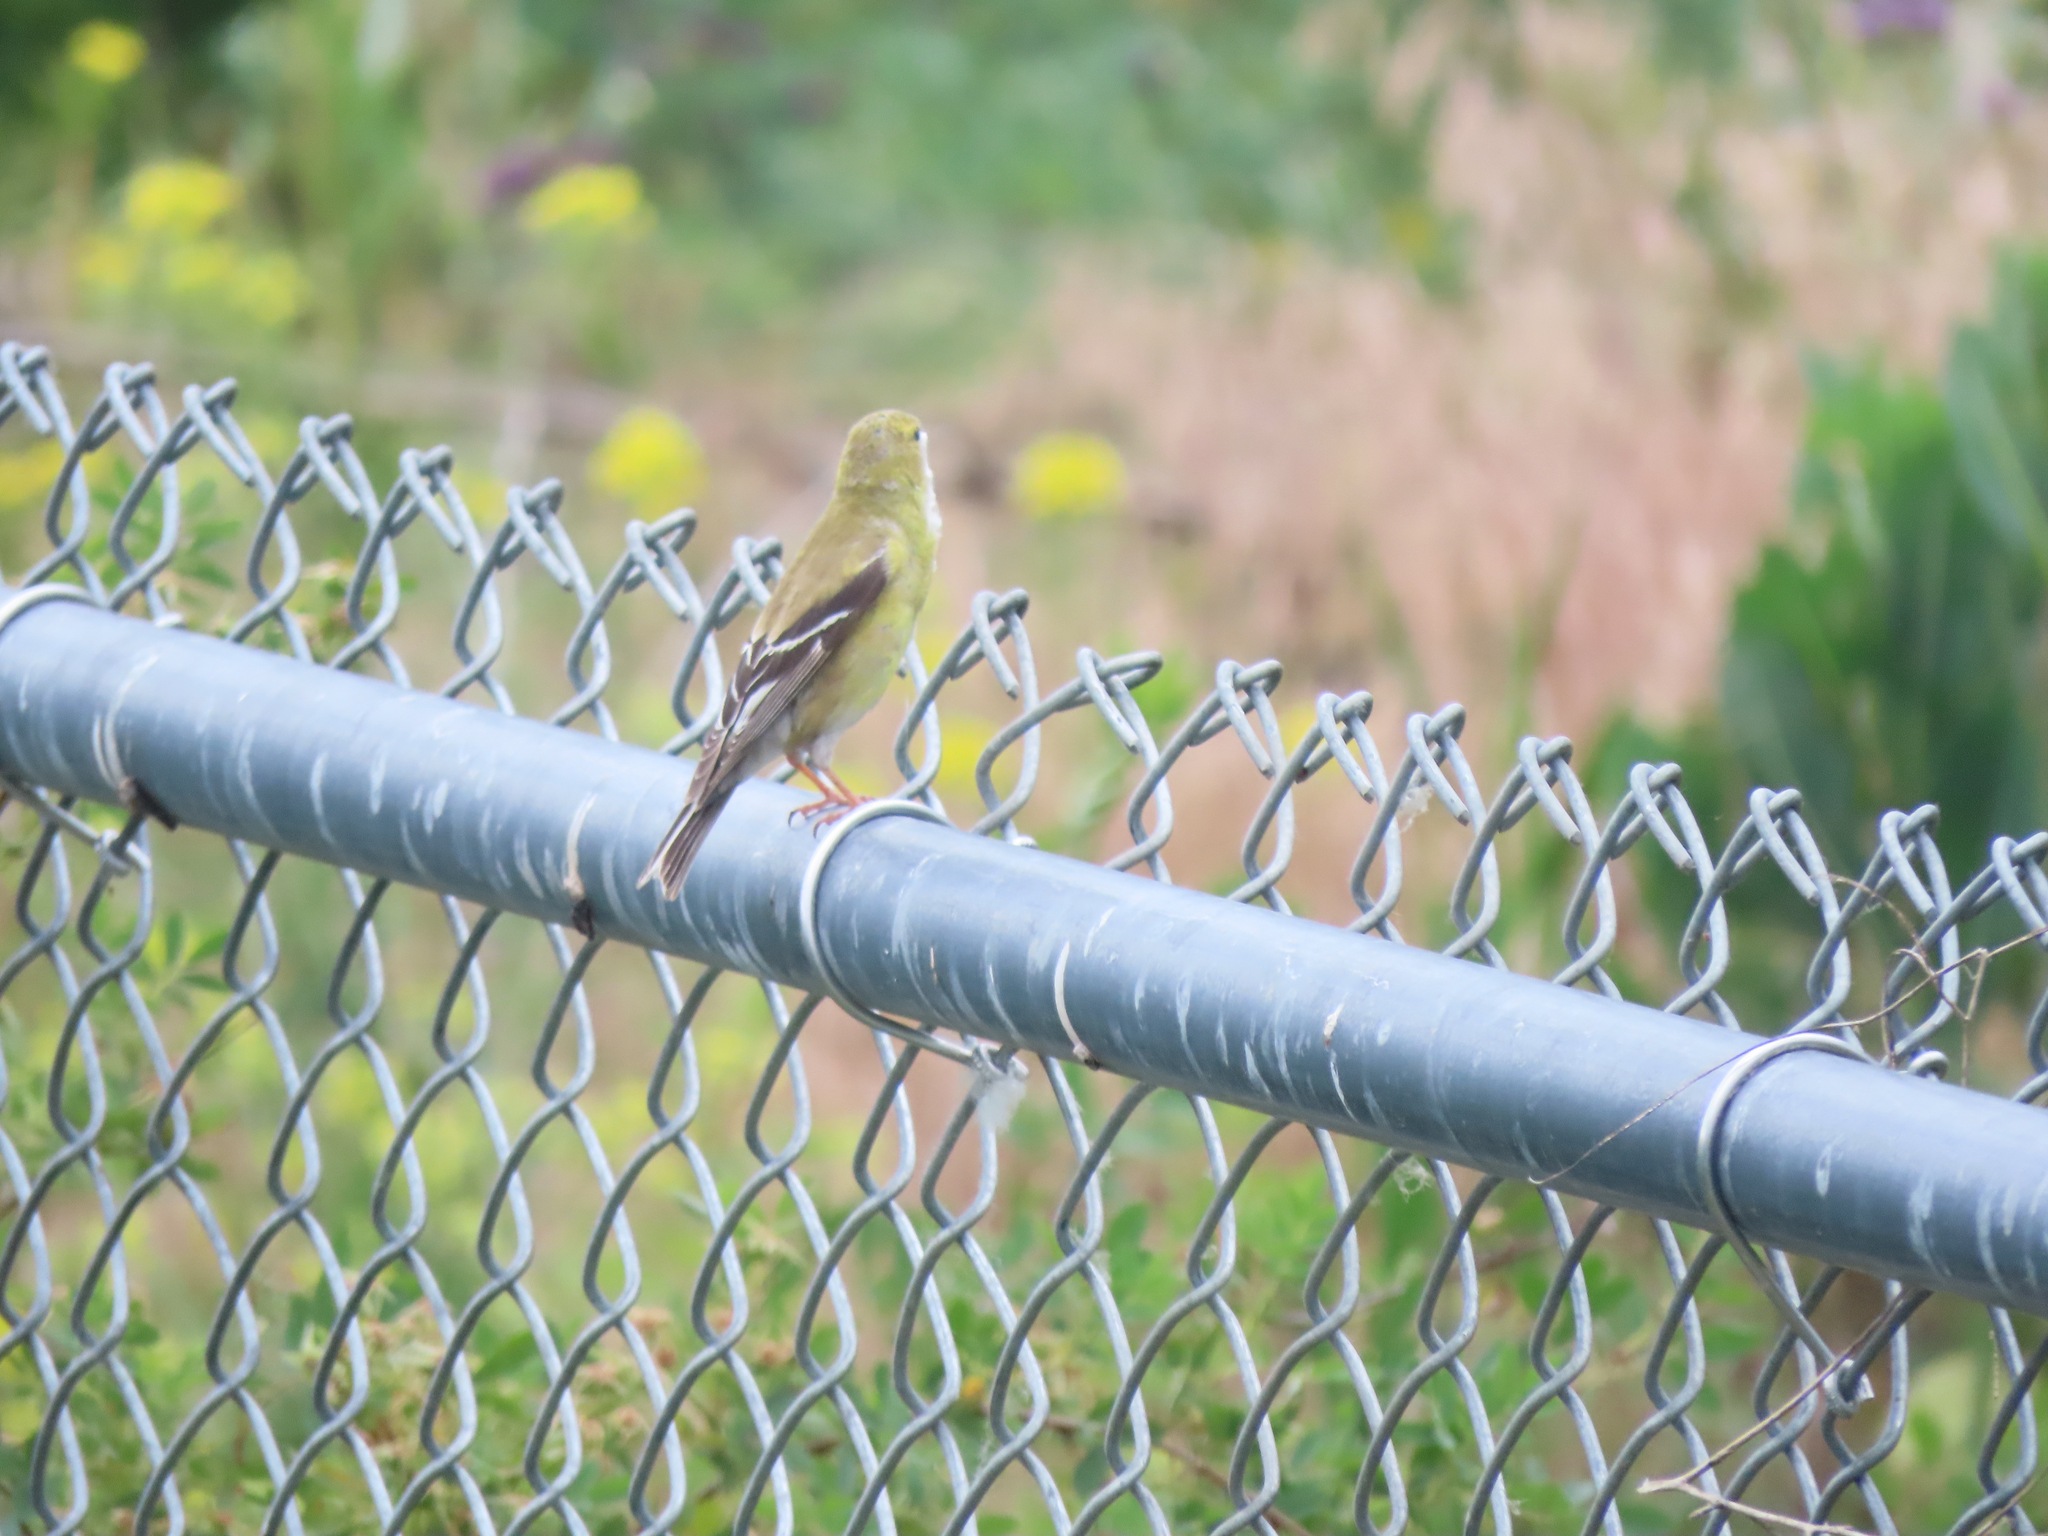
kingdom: Animalia
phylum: Chordata
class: Aves
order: Passeriformes
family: Fringillidae
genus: Spinus
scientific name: Spinus tristis
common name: American goldfinch
